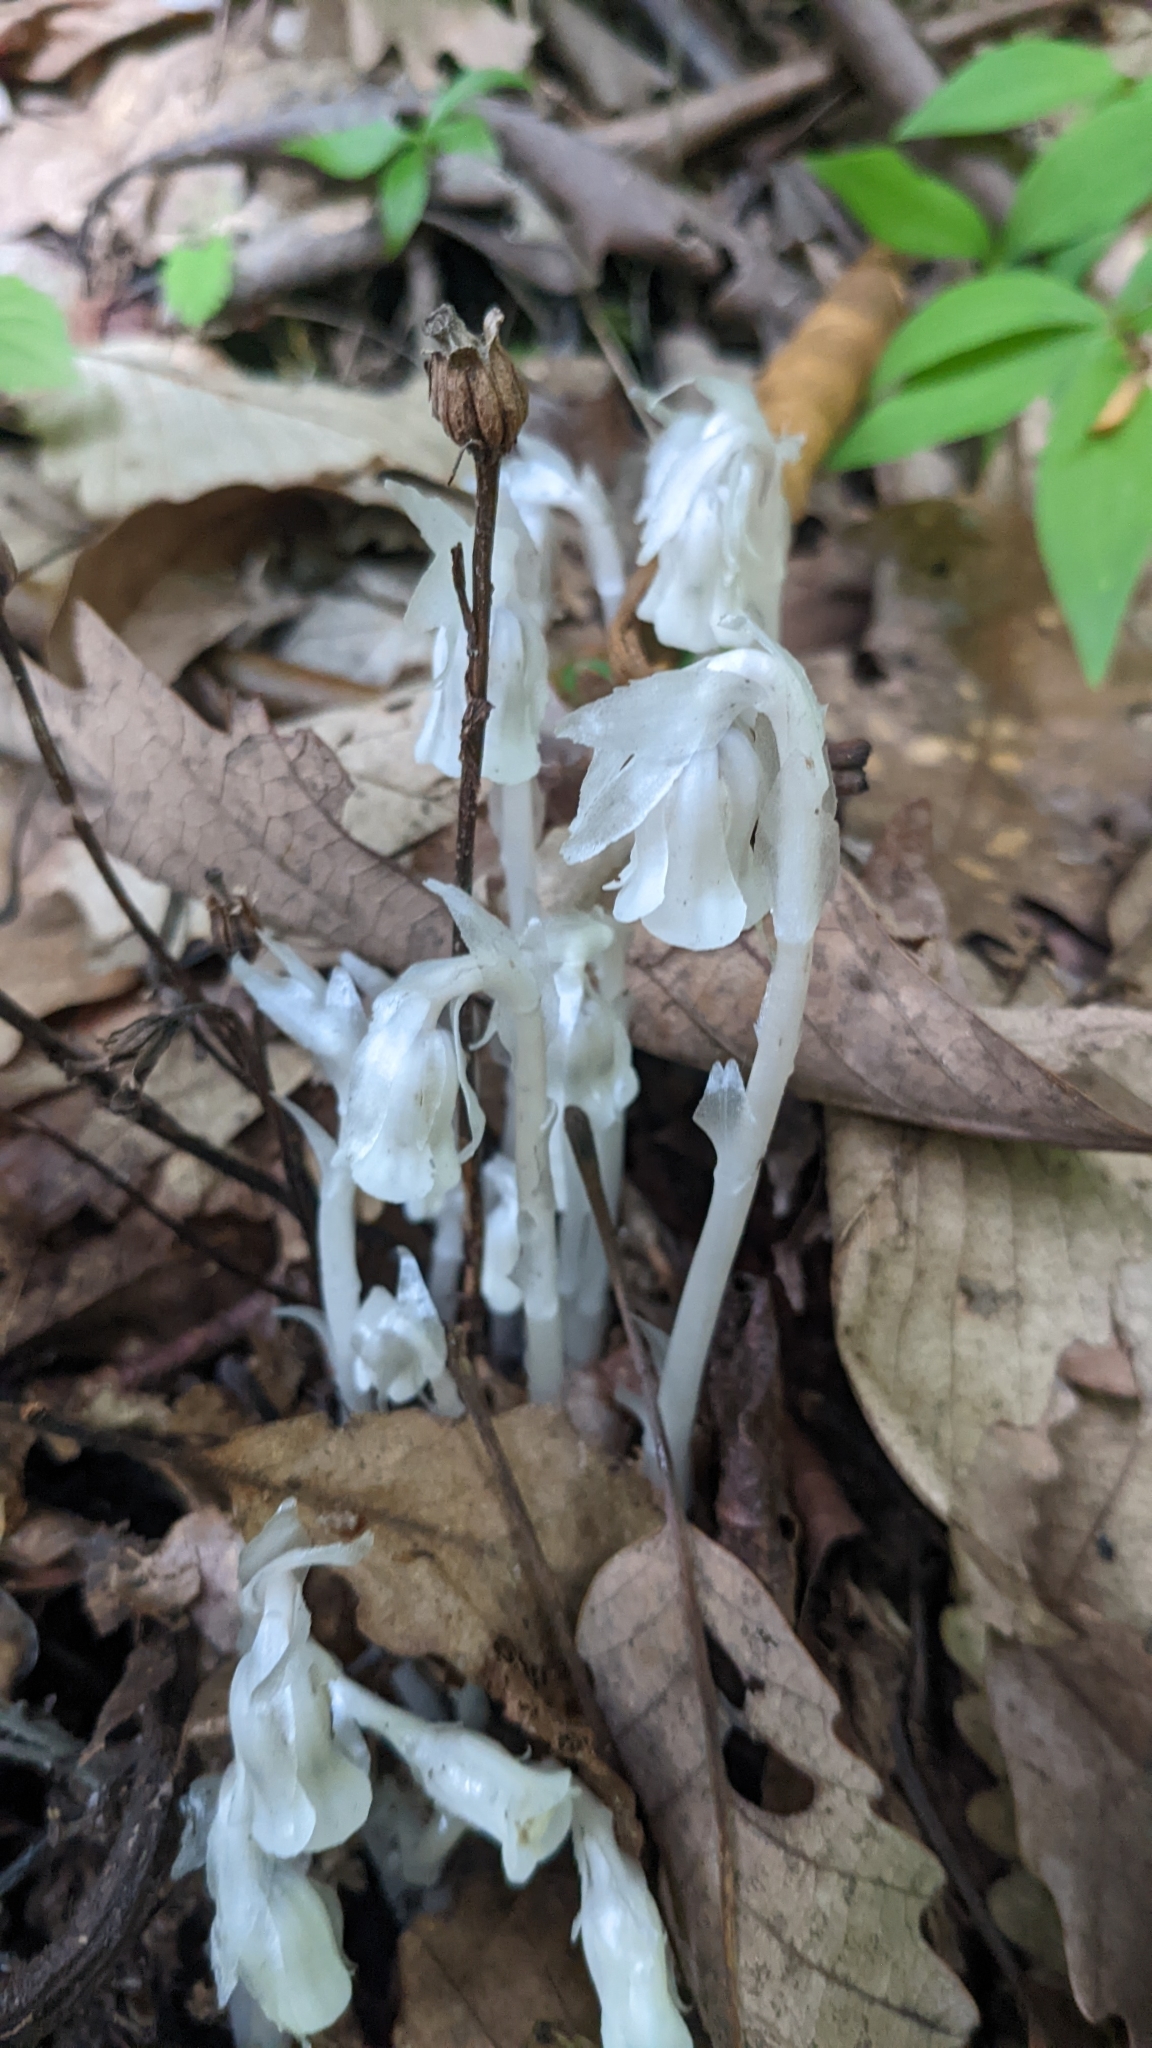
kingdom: Plantae
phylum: Tracheophyta
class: Magnoliopsida
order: Ericales
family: Ericaceae
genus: Monotropa
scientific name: Monotropa uniflora
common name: Convulsion root
